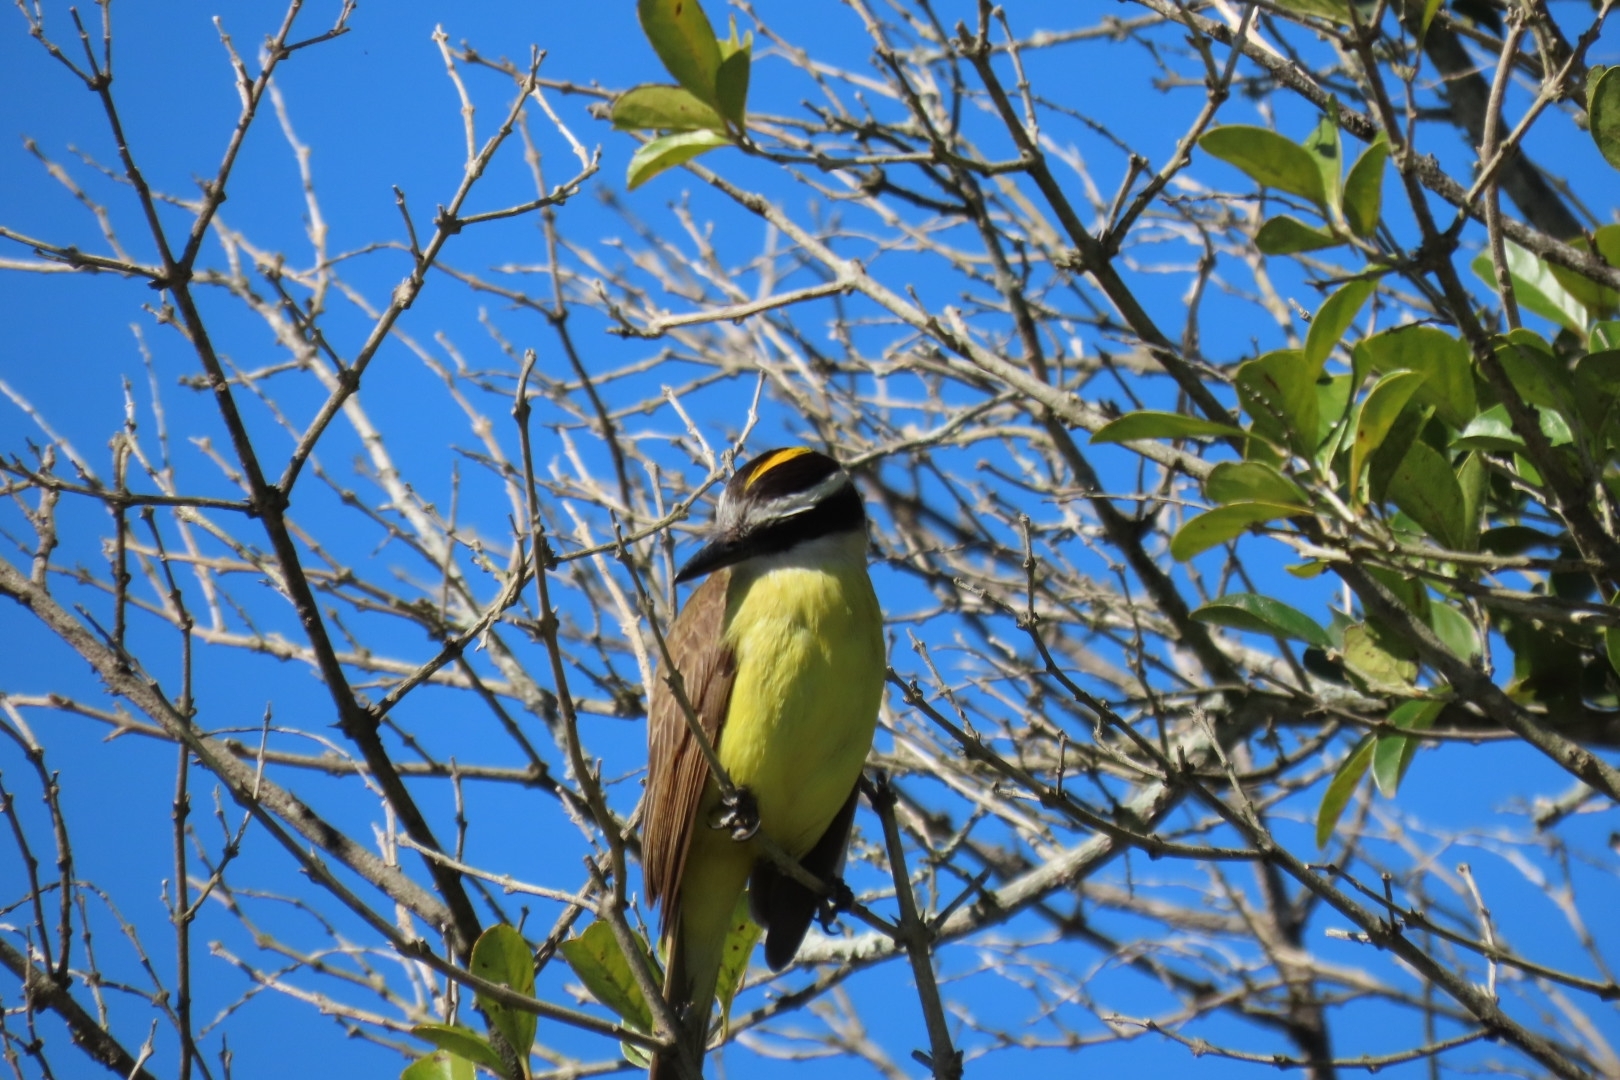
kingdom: Animalia
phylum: Chordata
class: Aves
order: Passeriformes
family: Tyrannidae
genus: Pitangus
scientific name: Pitangus sulphuratus
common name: Great kiskadee
